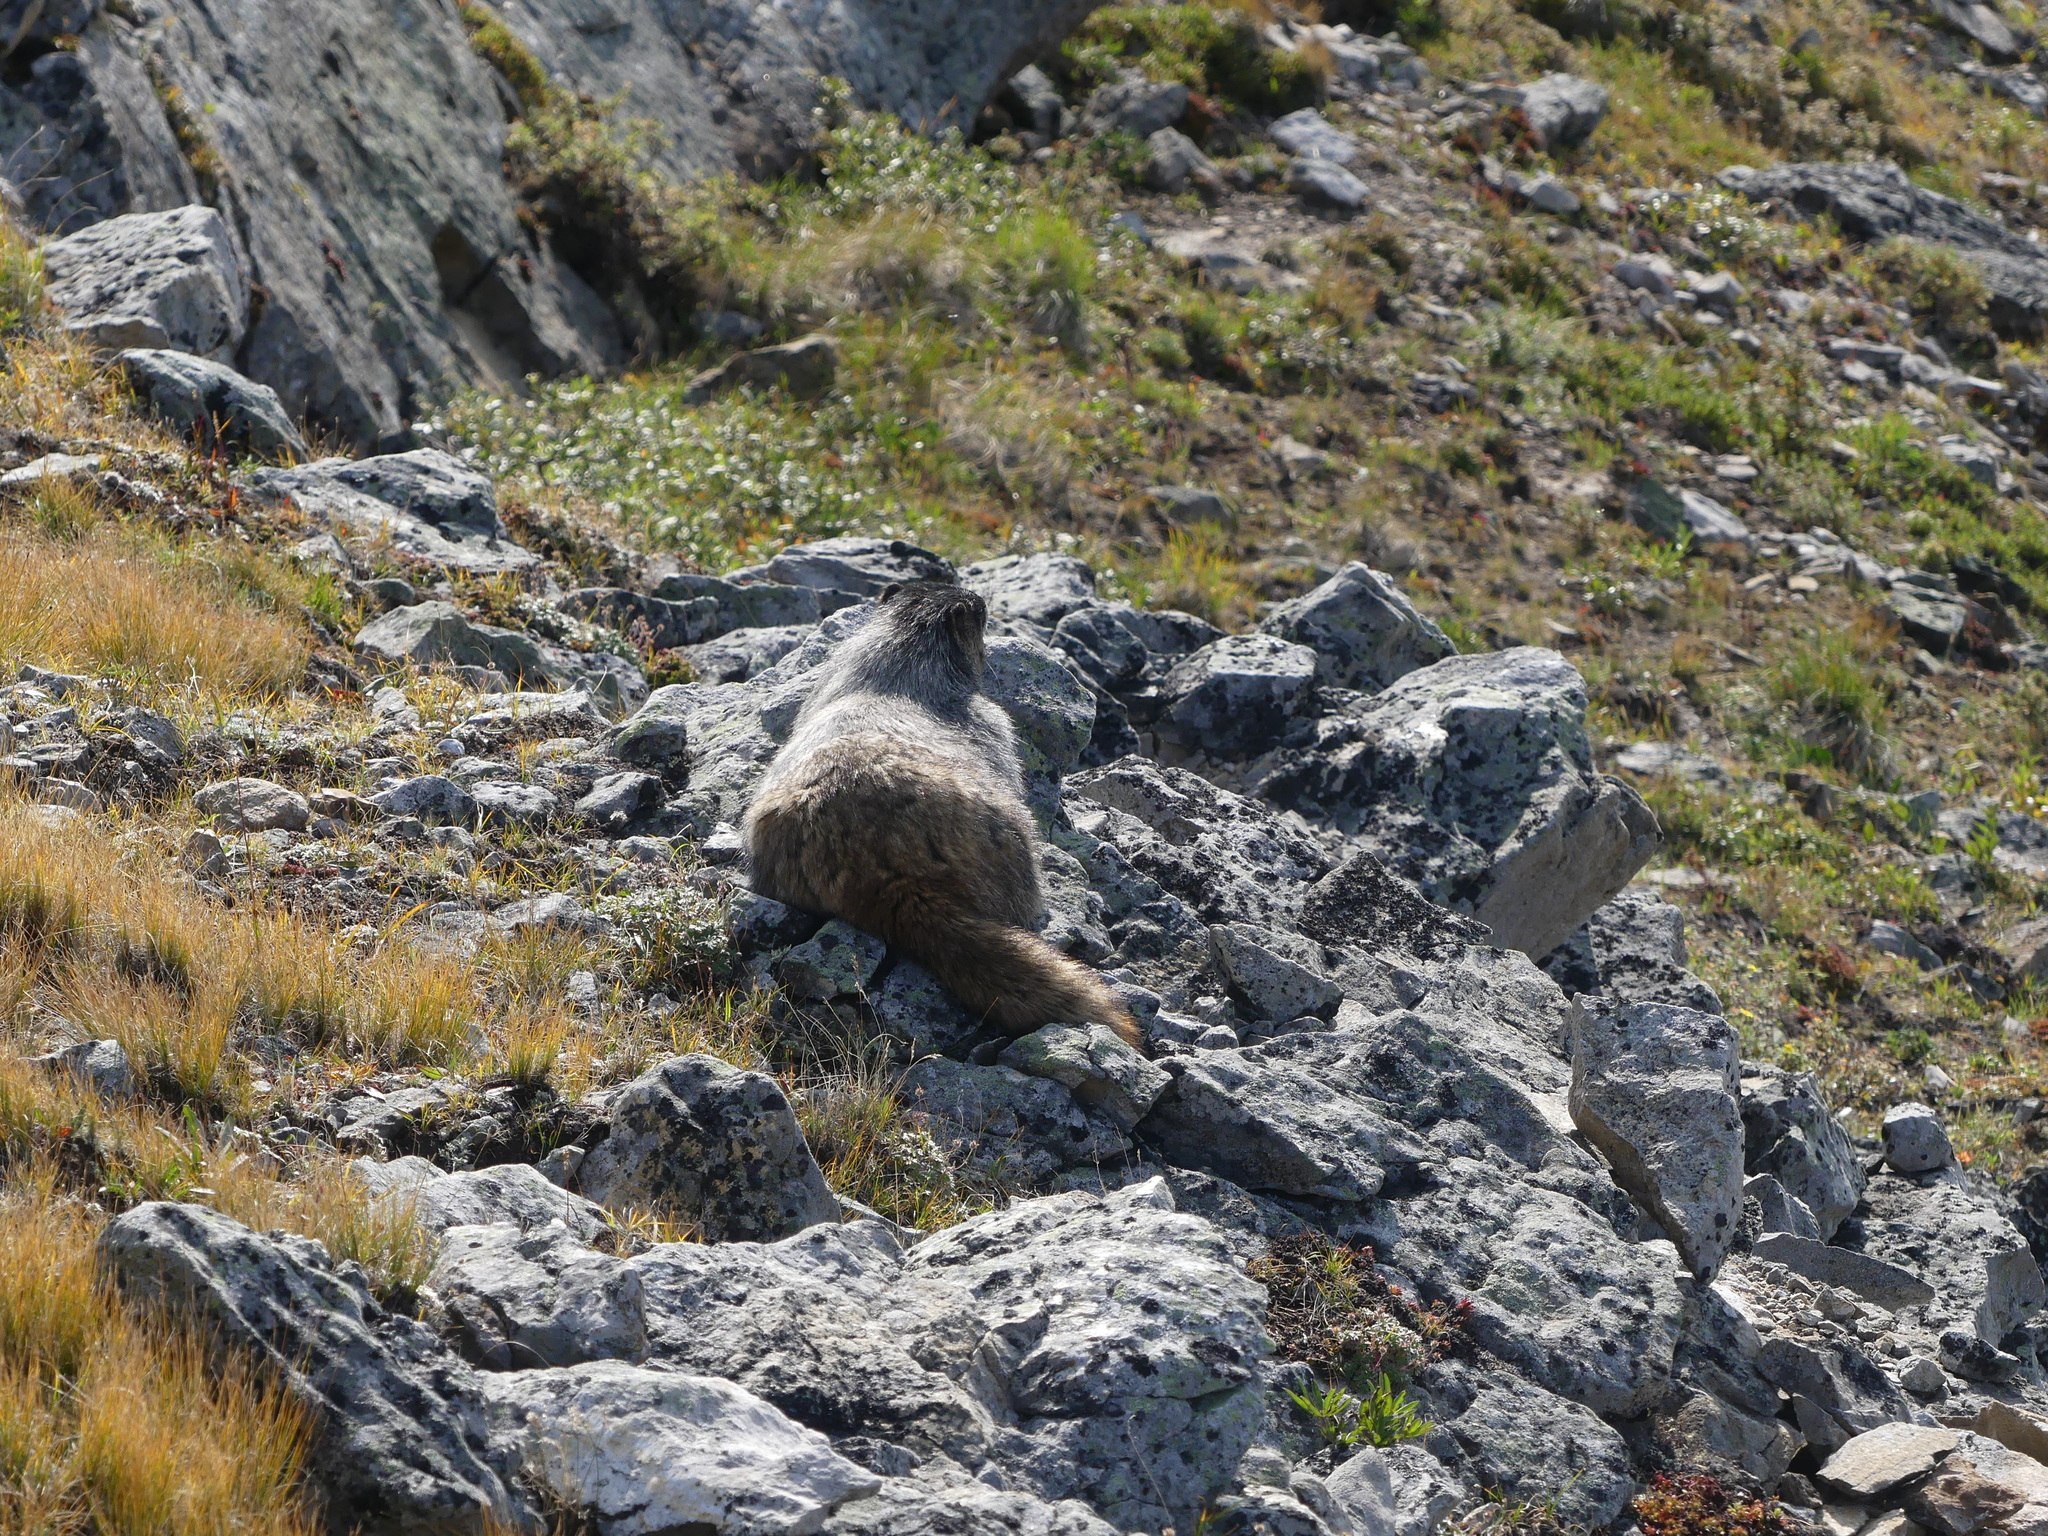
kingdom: Animalia
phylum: Chordata
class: Mammalia
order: Rodentia
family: Sciuridae
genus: Marmota
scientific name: Marmota caligata
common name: Hoary marmot
